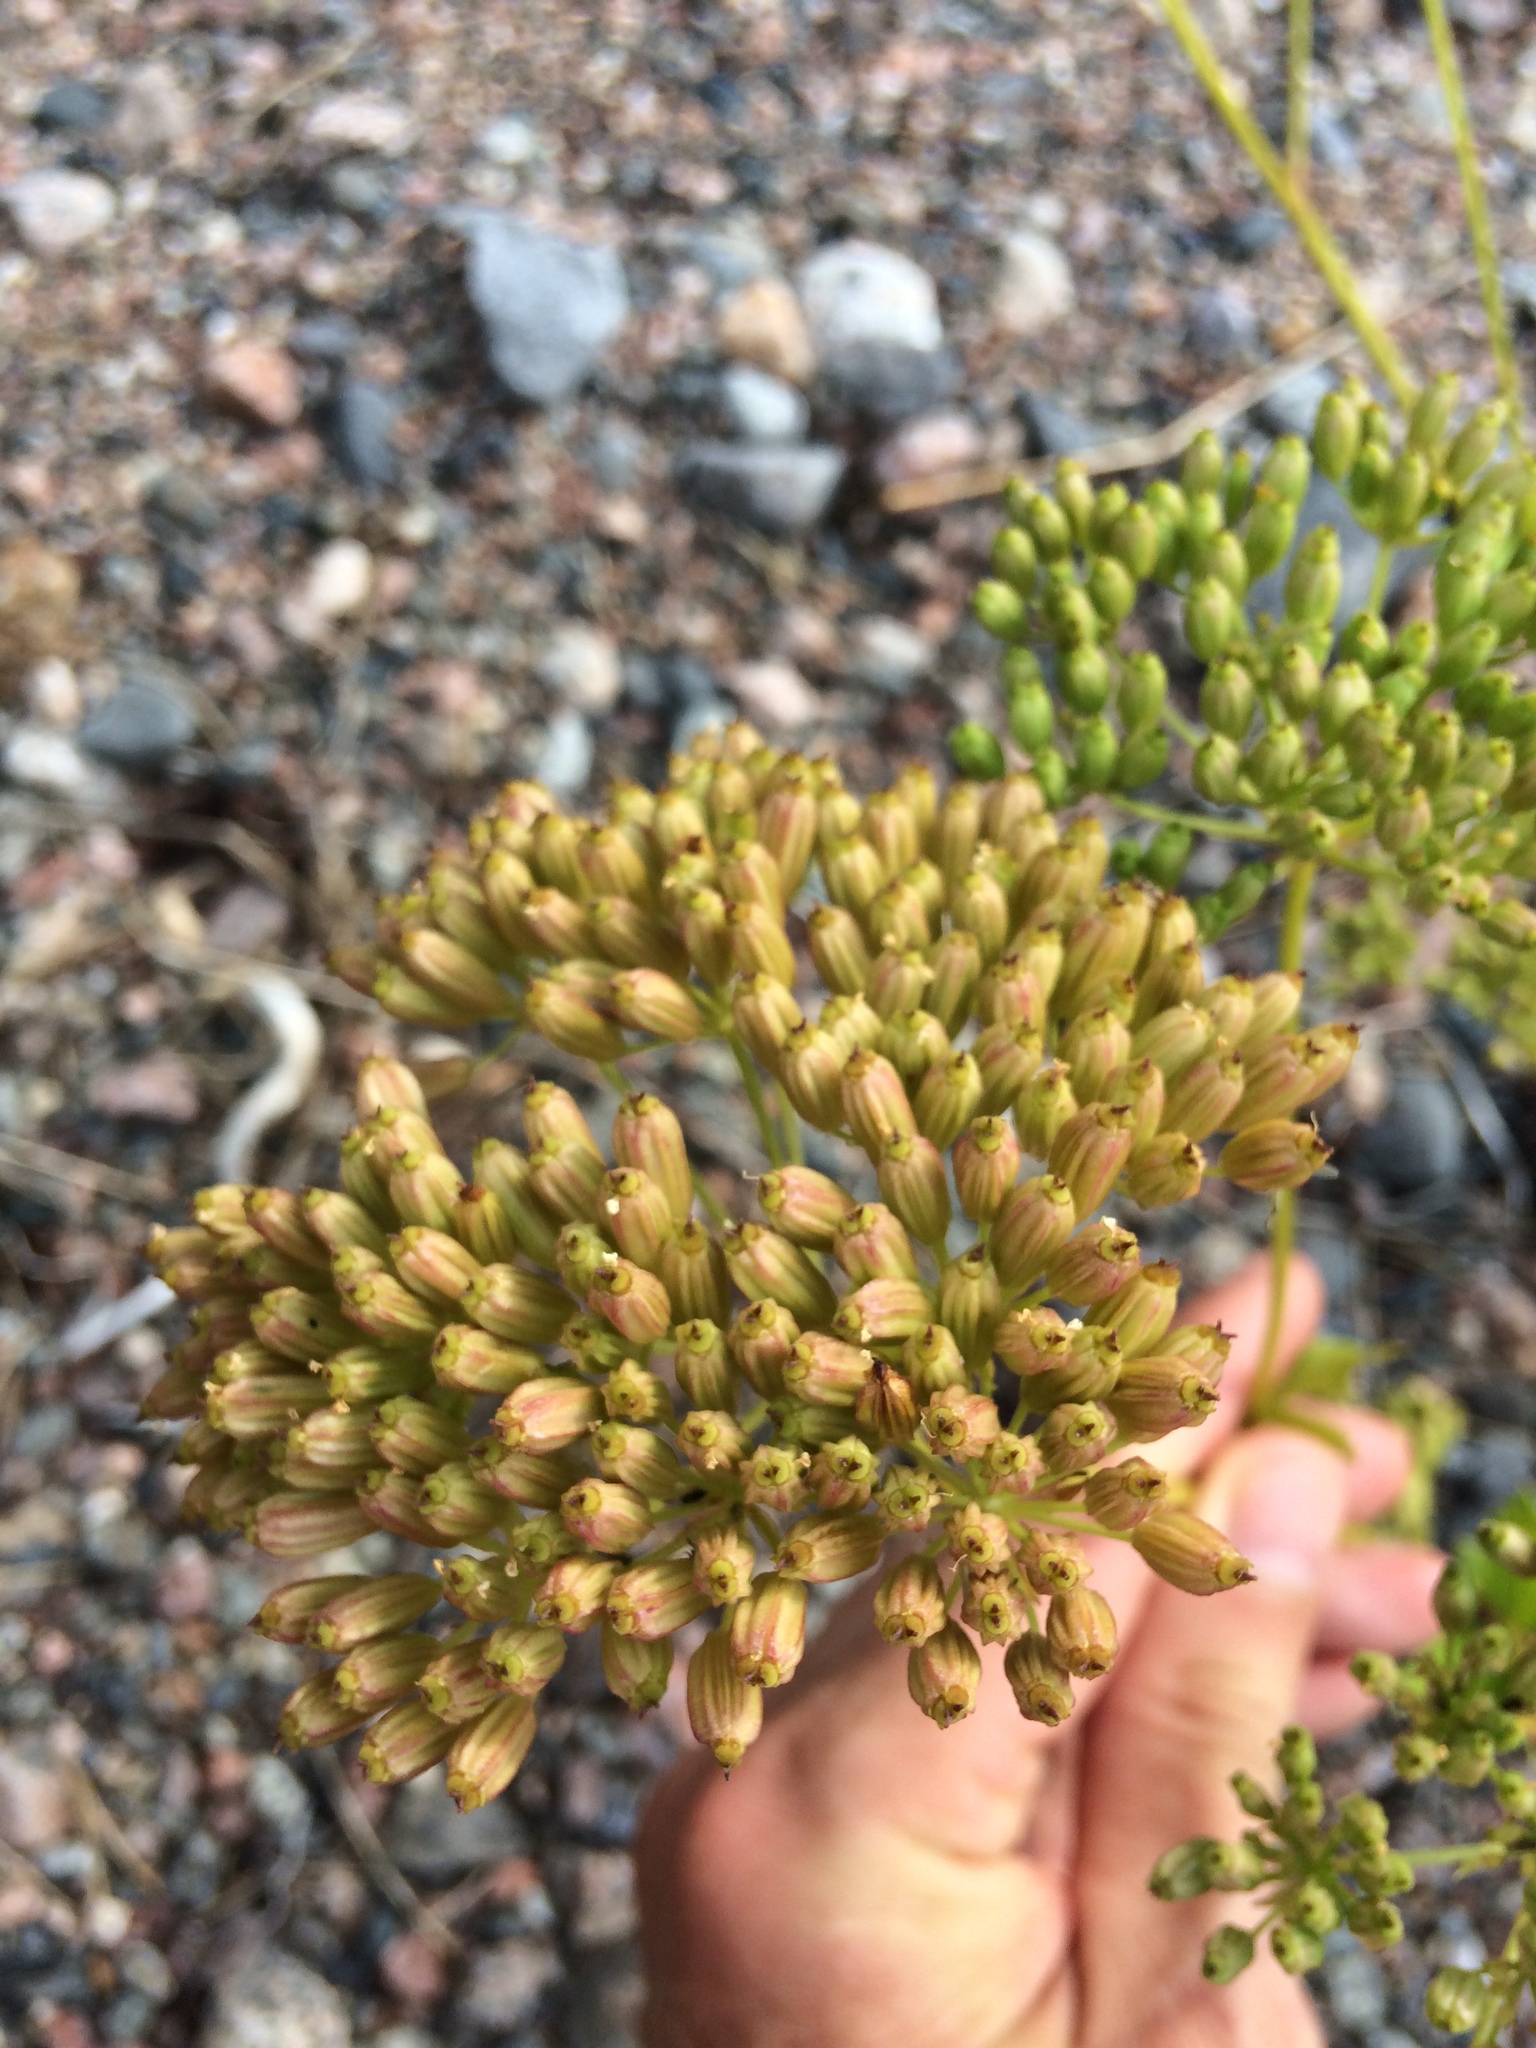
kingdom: Plantae
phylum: Tracheophyta
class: Magnoliopsida
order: Apiales
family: Apiaceae
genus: Ligusticum
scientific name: Ligusticum scothicum
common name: Beach lovage
